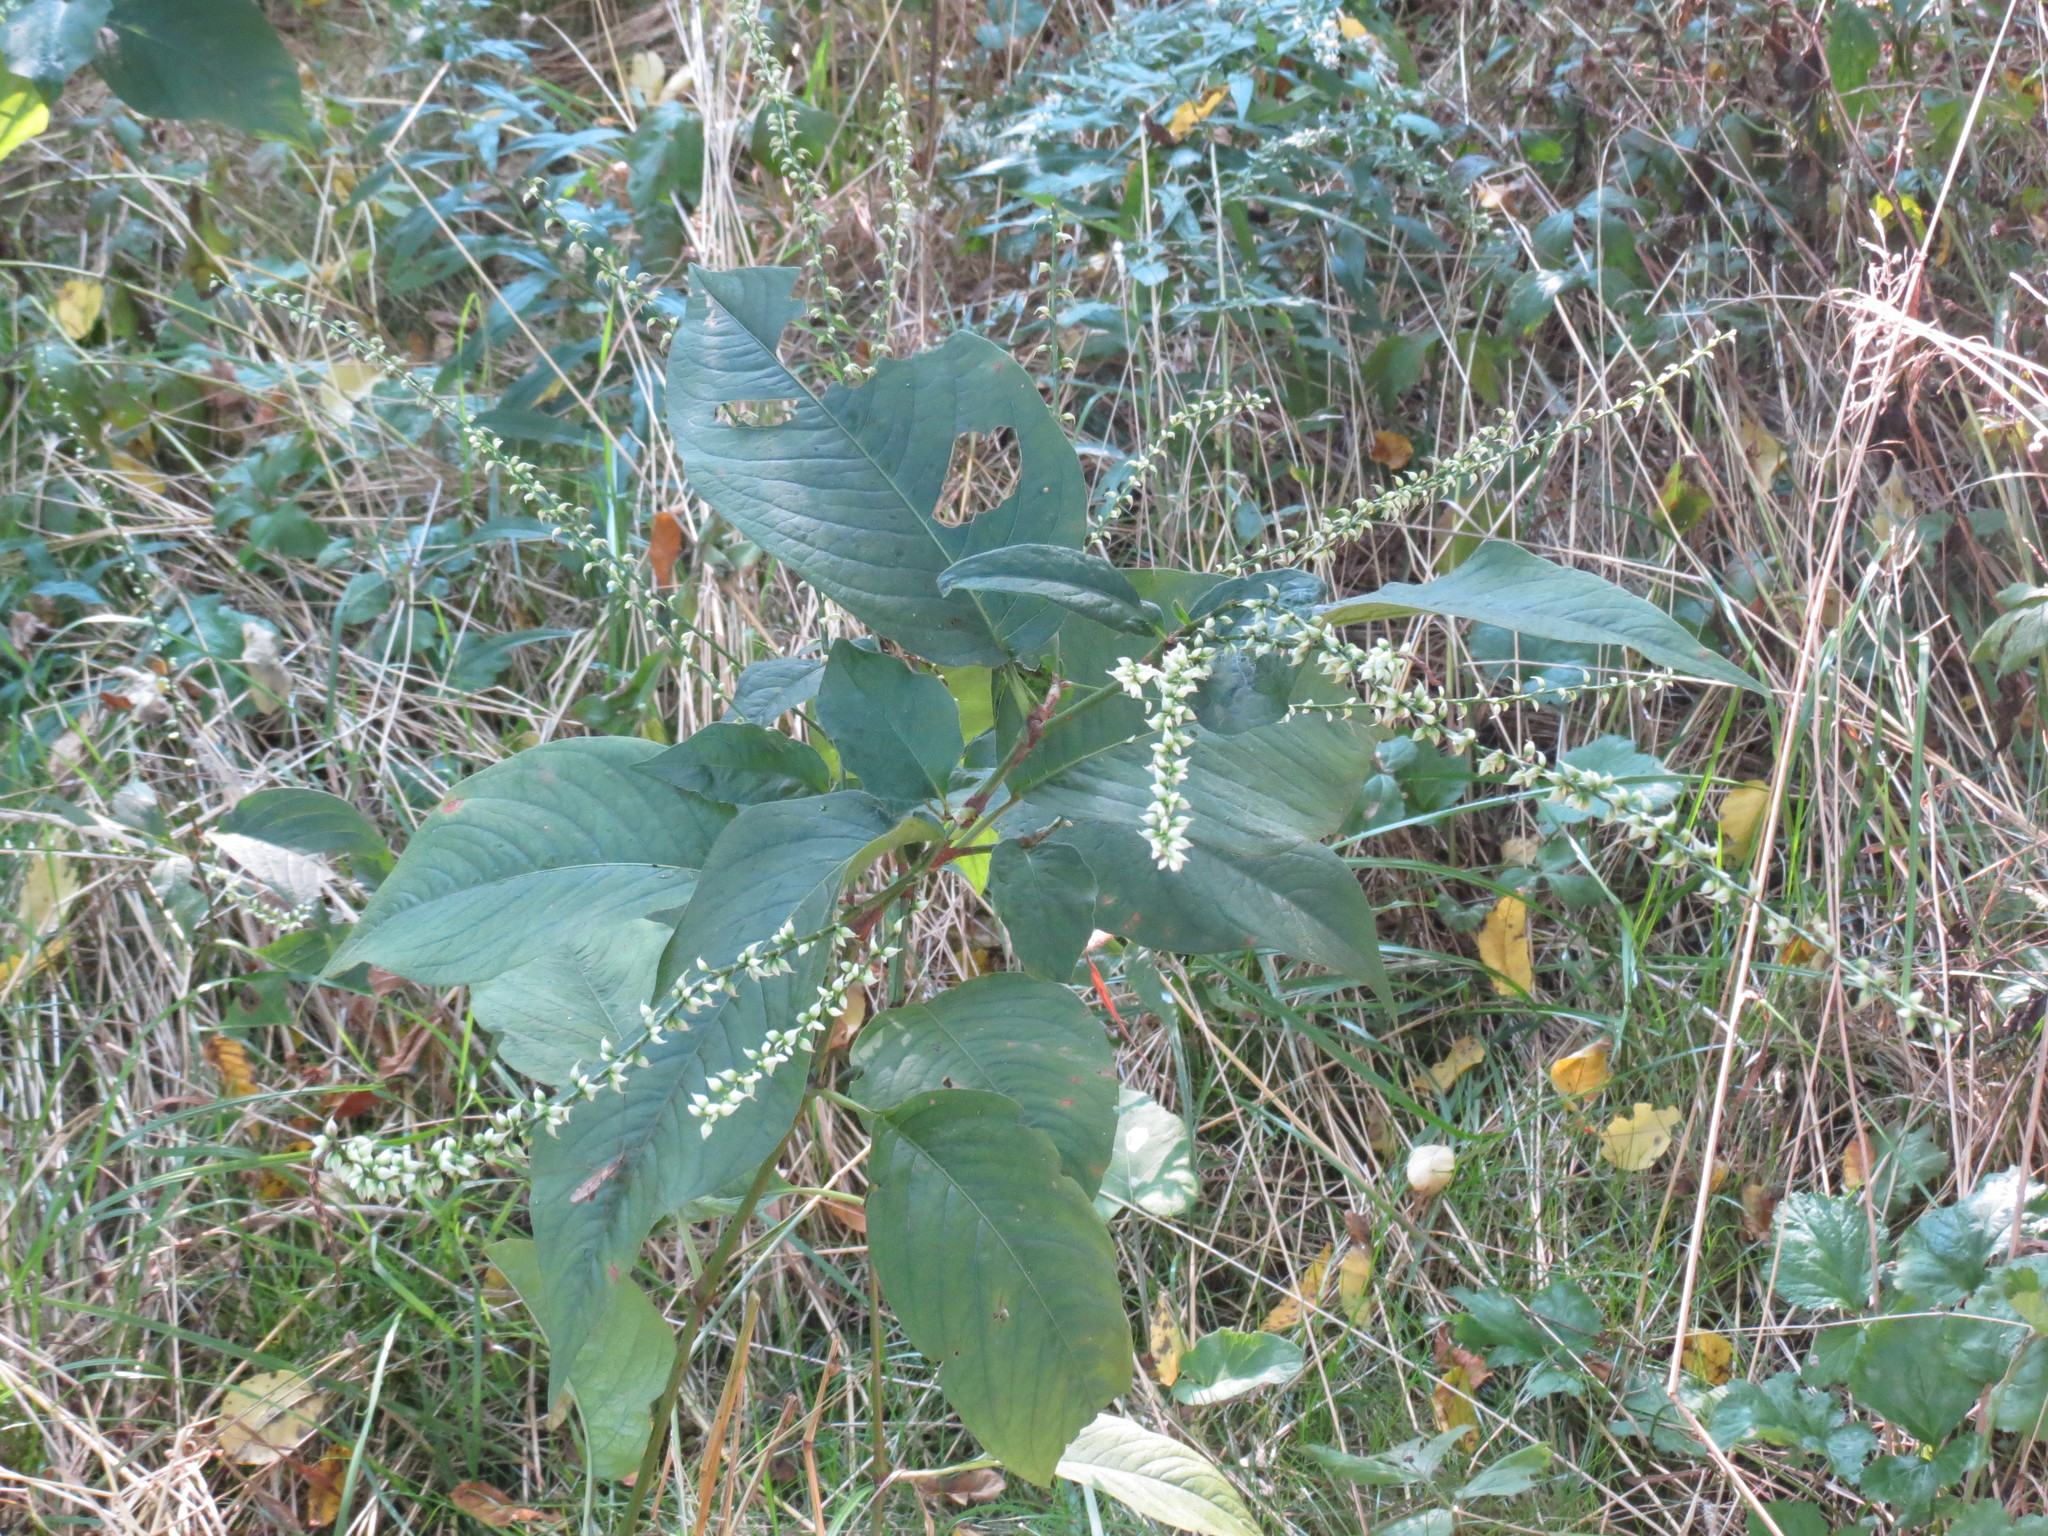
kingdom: Plantae
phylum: Tracheophyta
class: Magnoliopsida
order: Caryophyllales
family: Polygonaceae
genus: Persicaria
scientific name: Persicaria virginiana
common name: Jumpseed
